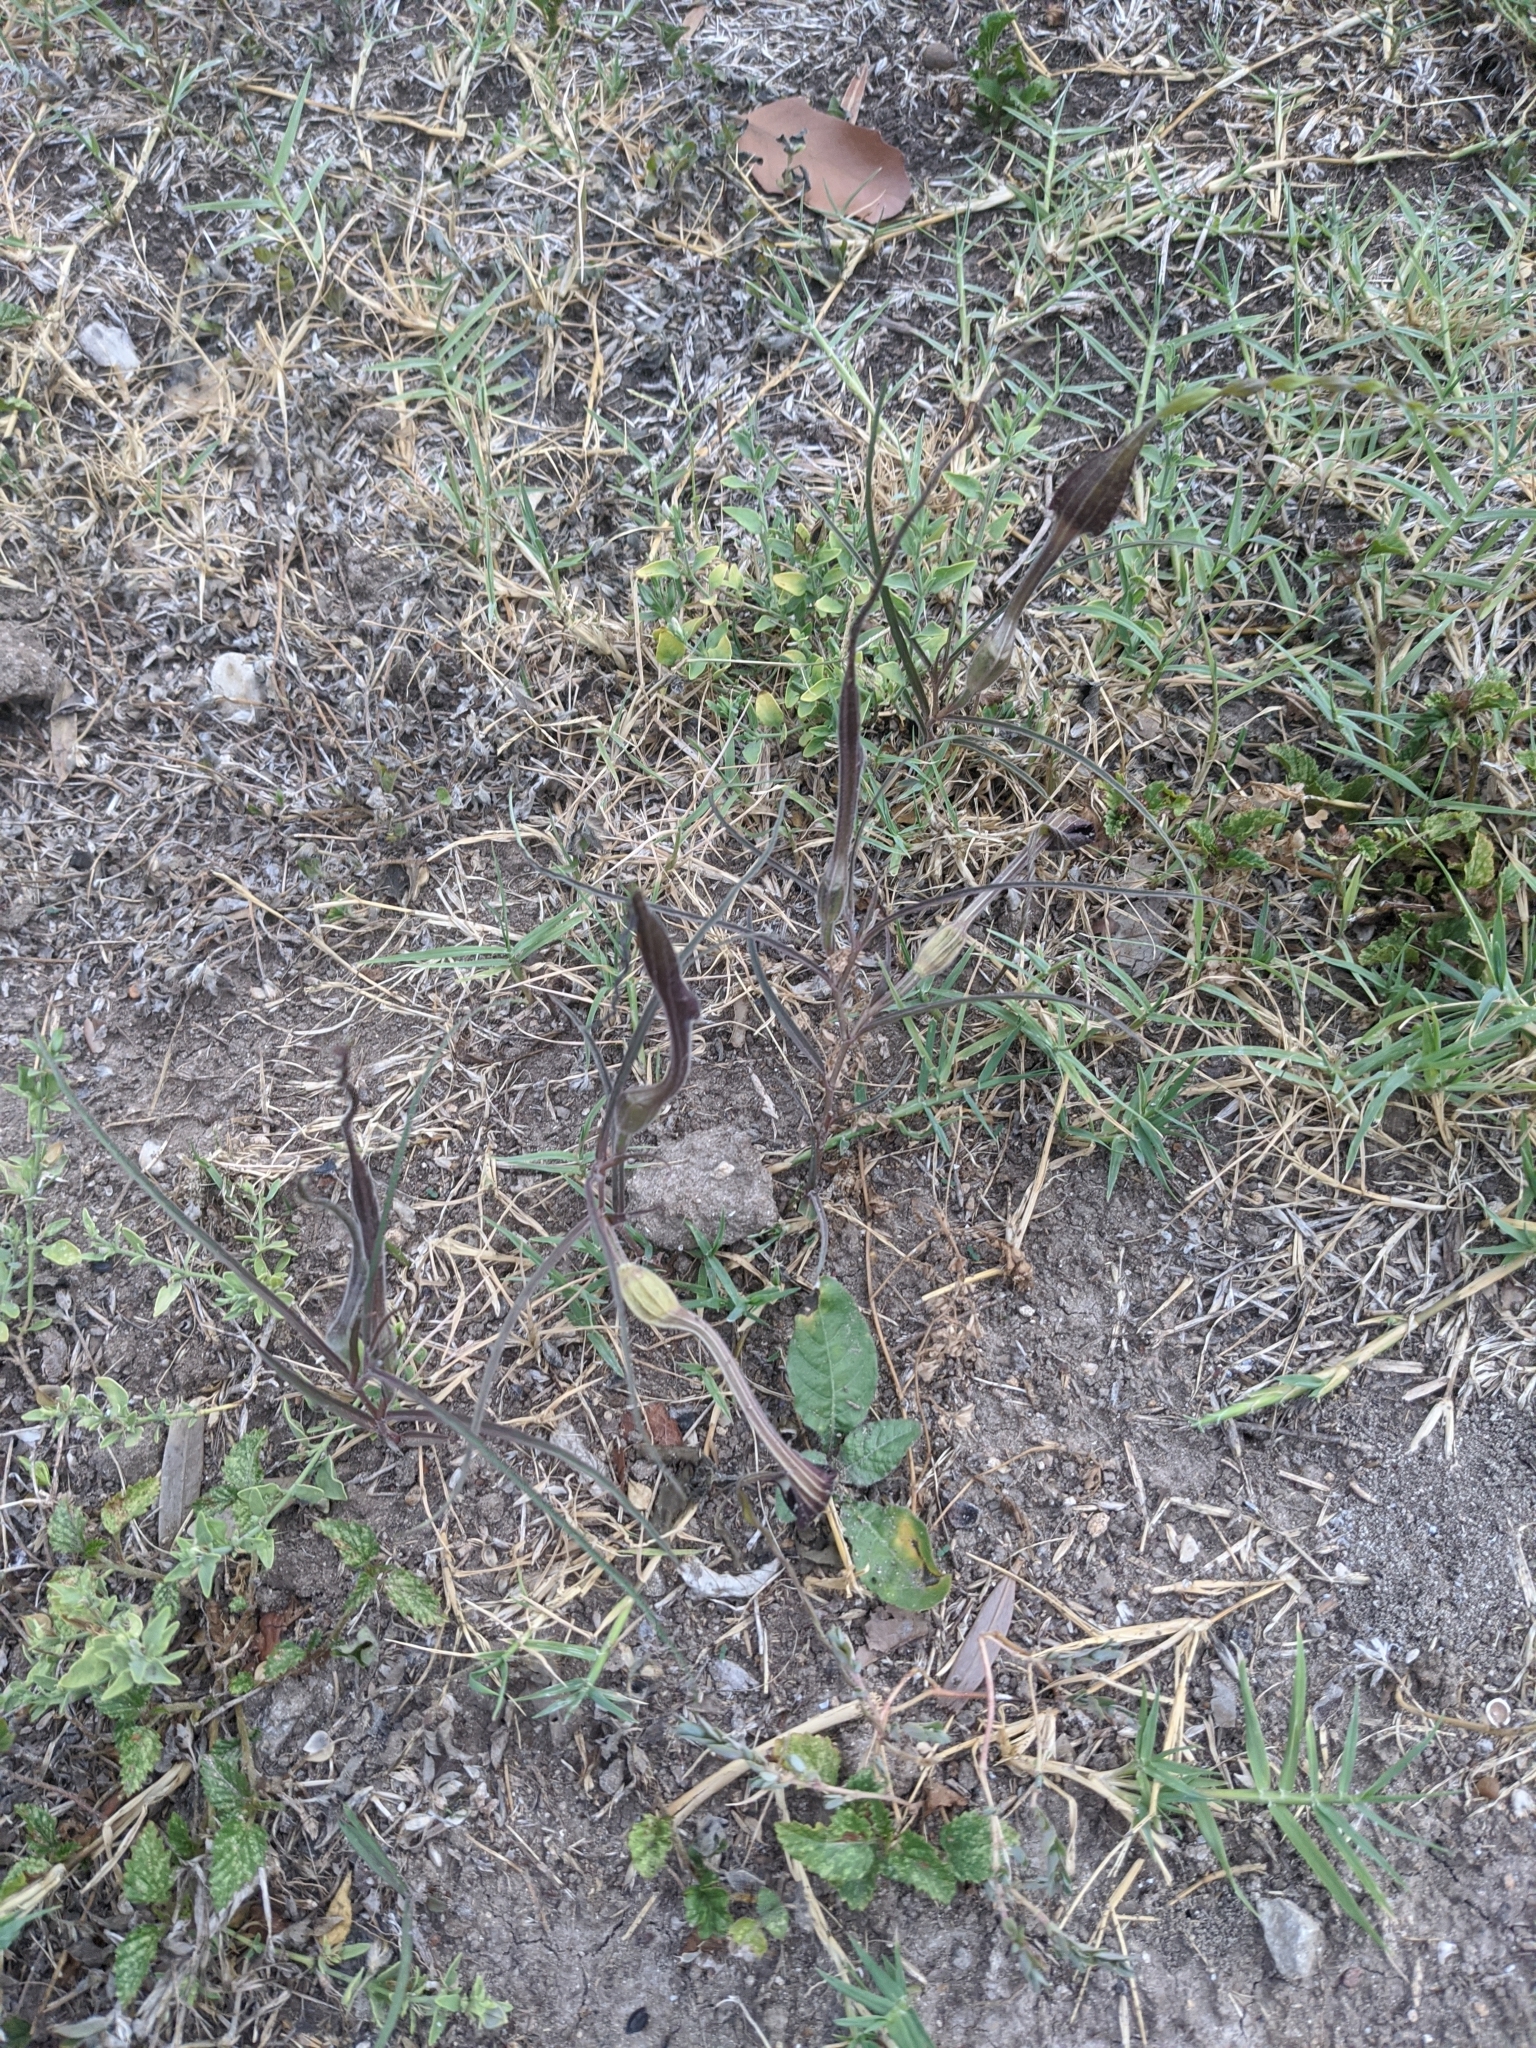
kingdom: Plantae
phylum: Tracheophyta
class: Magnoliopsida
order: Piperales
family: Aristolochiaceae
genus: Aristolochia
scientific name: Aristolochia erecta
